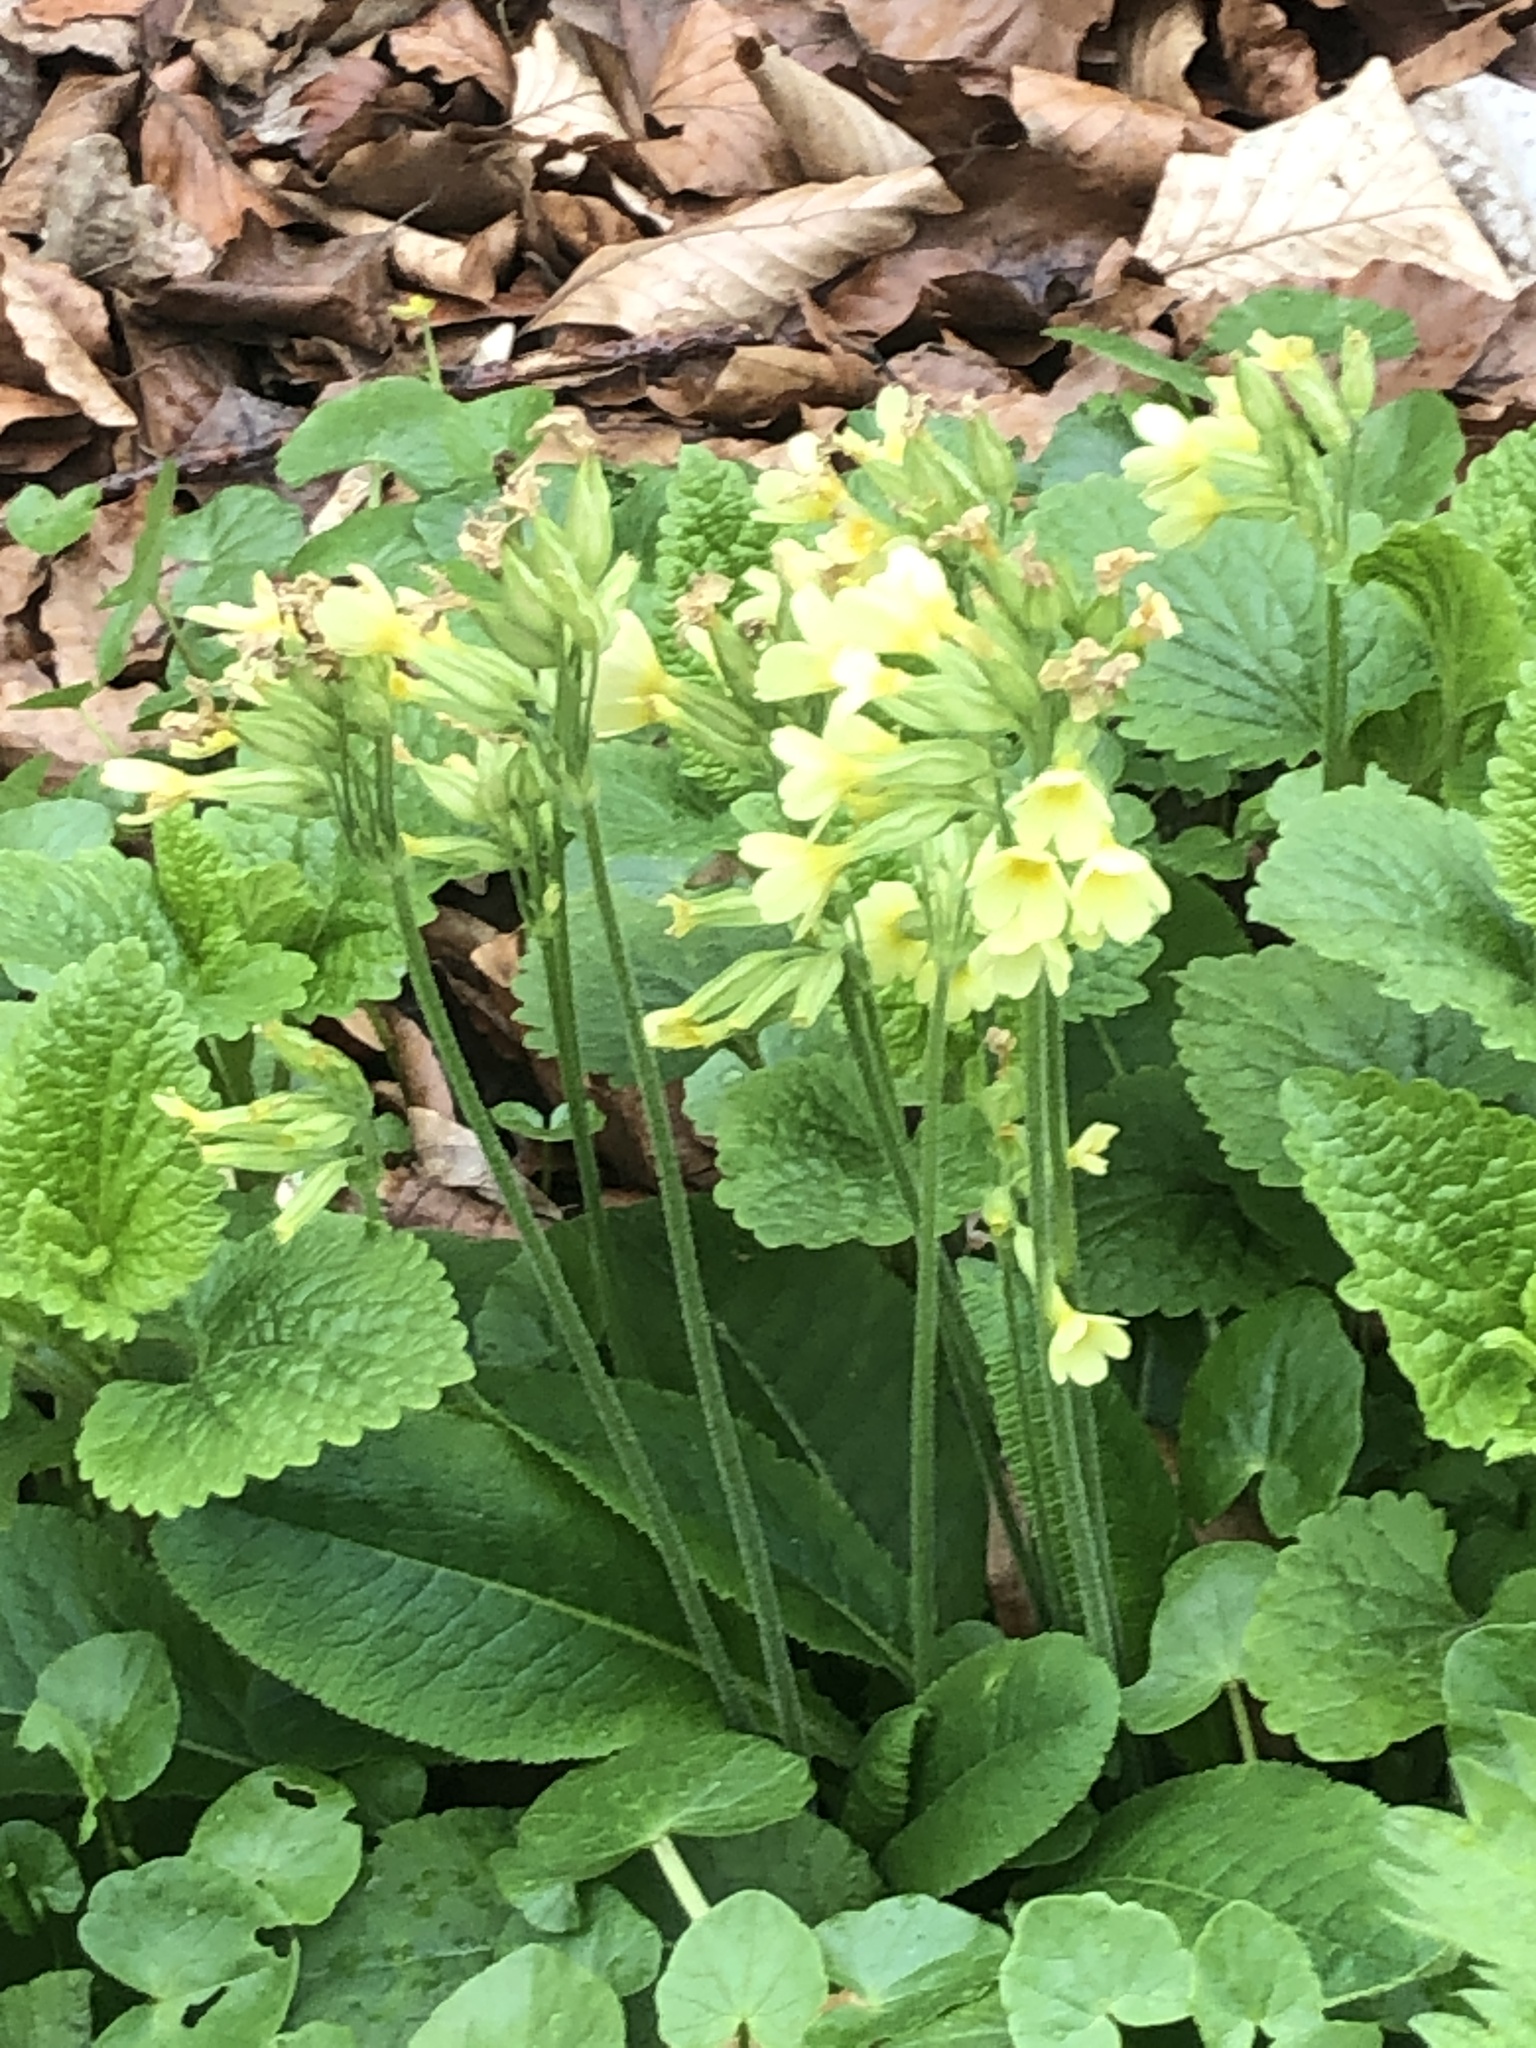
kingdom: Plantae
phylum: Tracheophyta
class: Magnoliopsida
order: Ericales
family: Primulaceae
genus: Primula
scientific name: Primula elatior
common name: Oxlip
